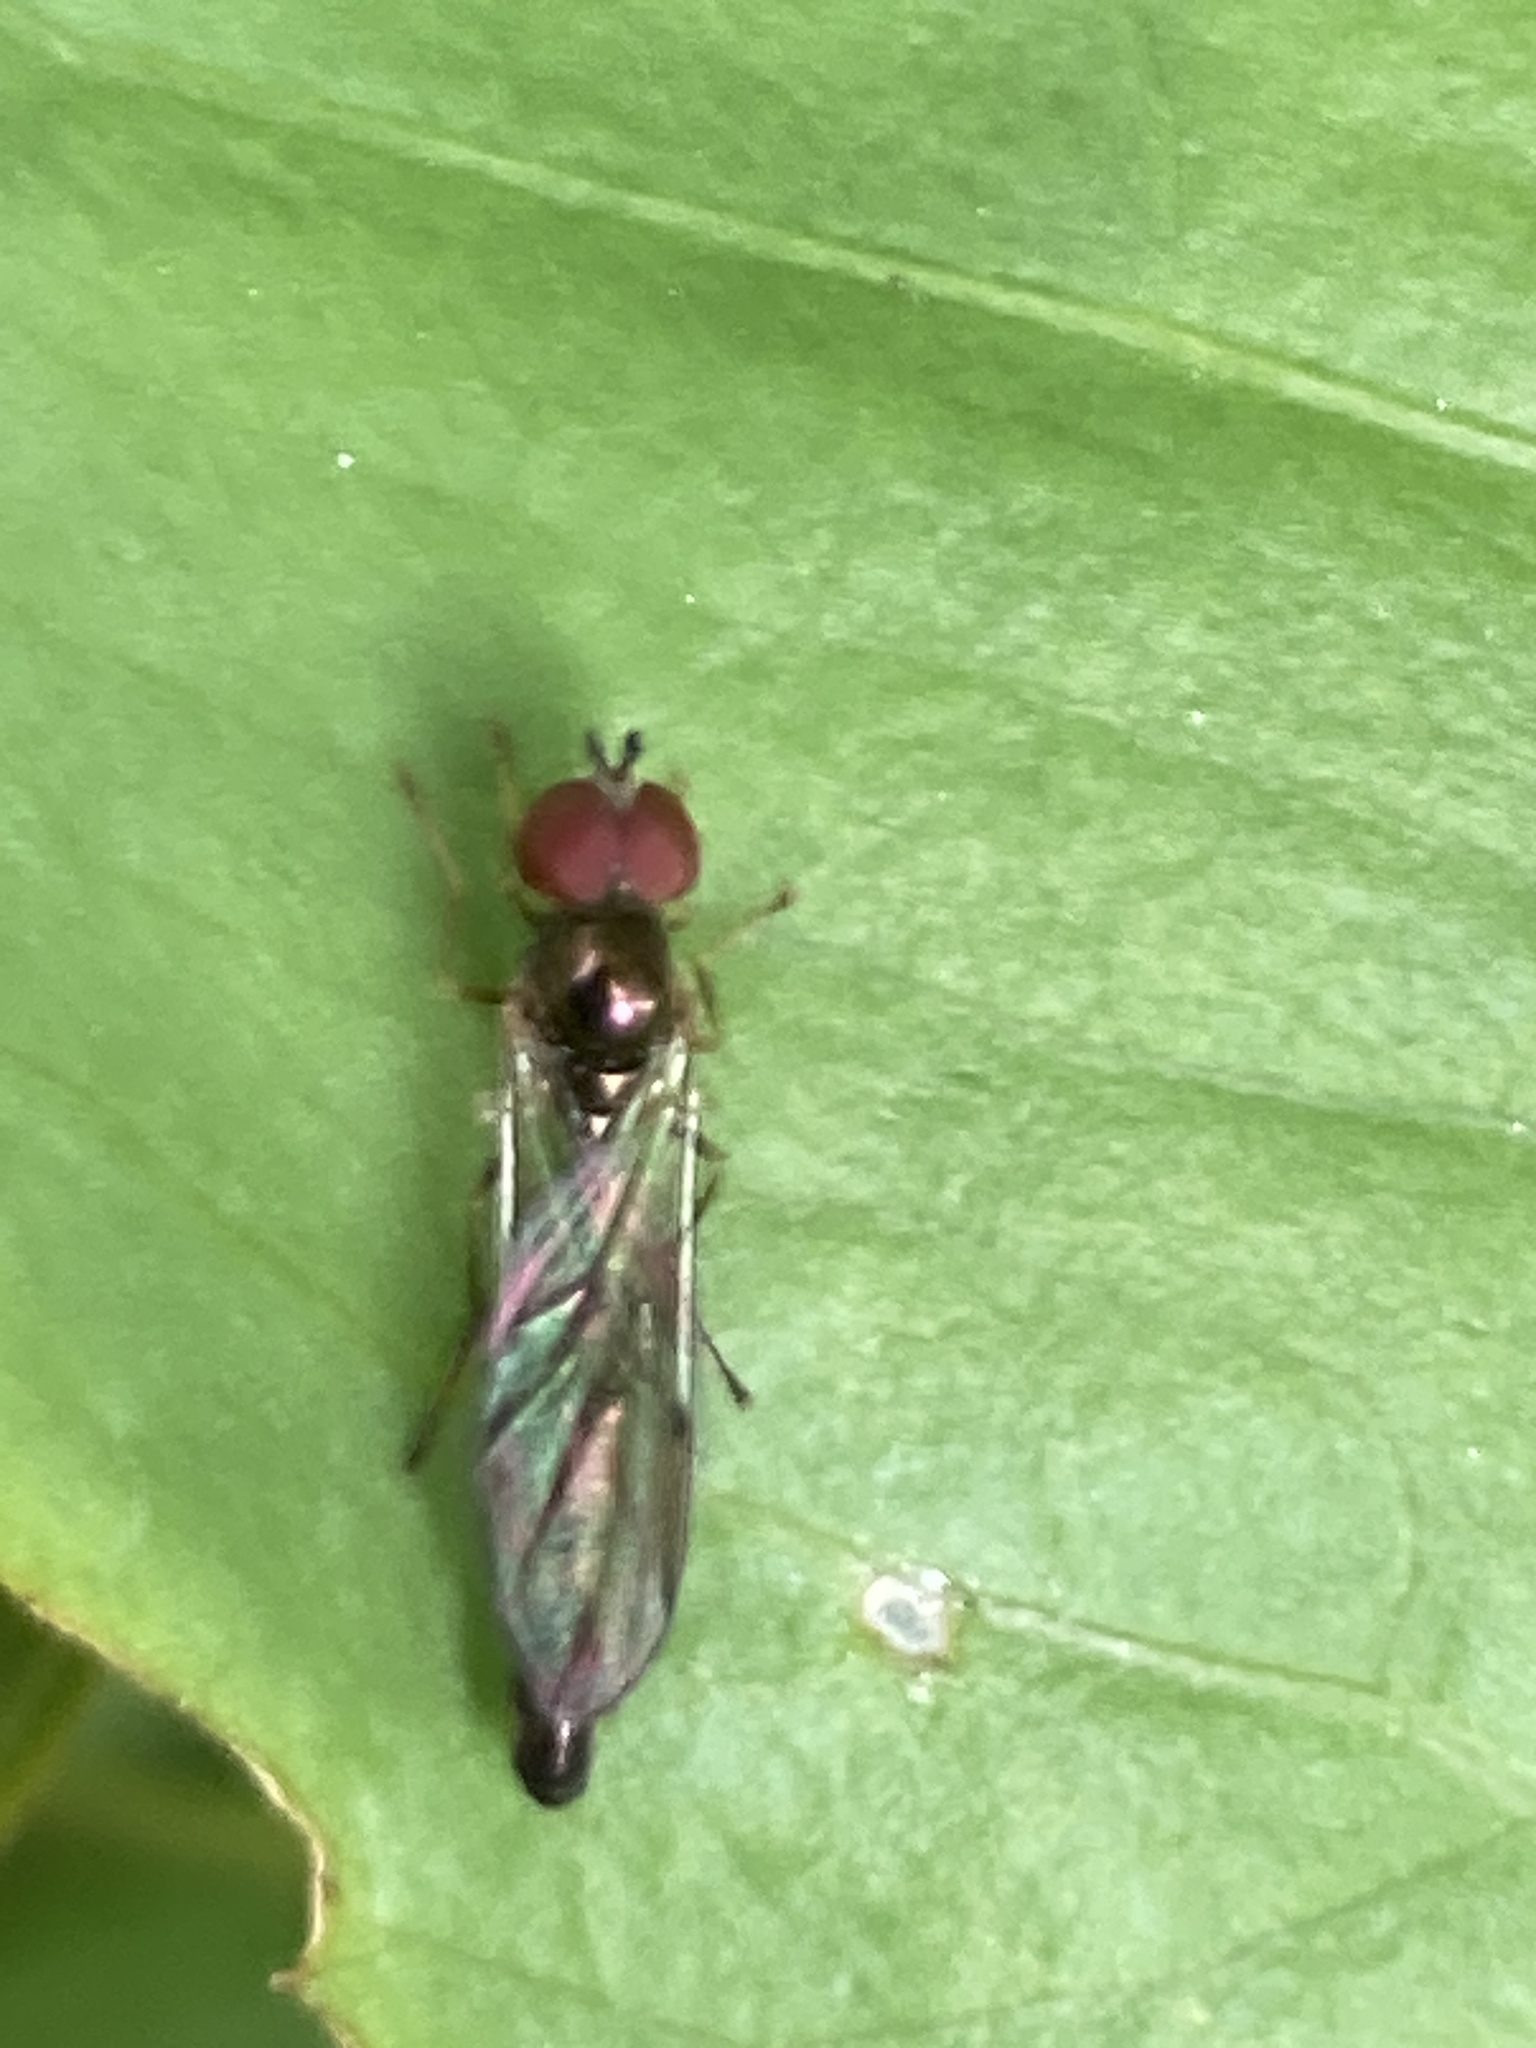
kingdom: Animalia
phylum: Arthropoda
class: Insecta
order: Diptera
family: Syrphidae
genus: Baccha
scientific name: Baccha elongata
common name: Common dainty
